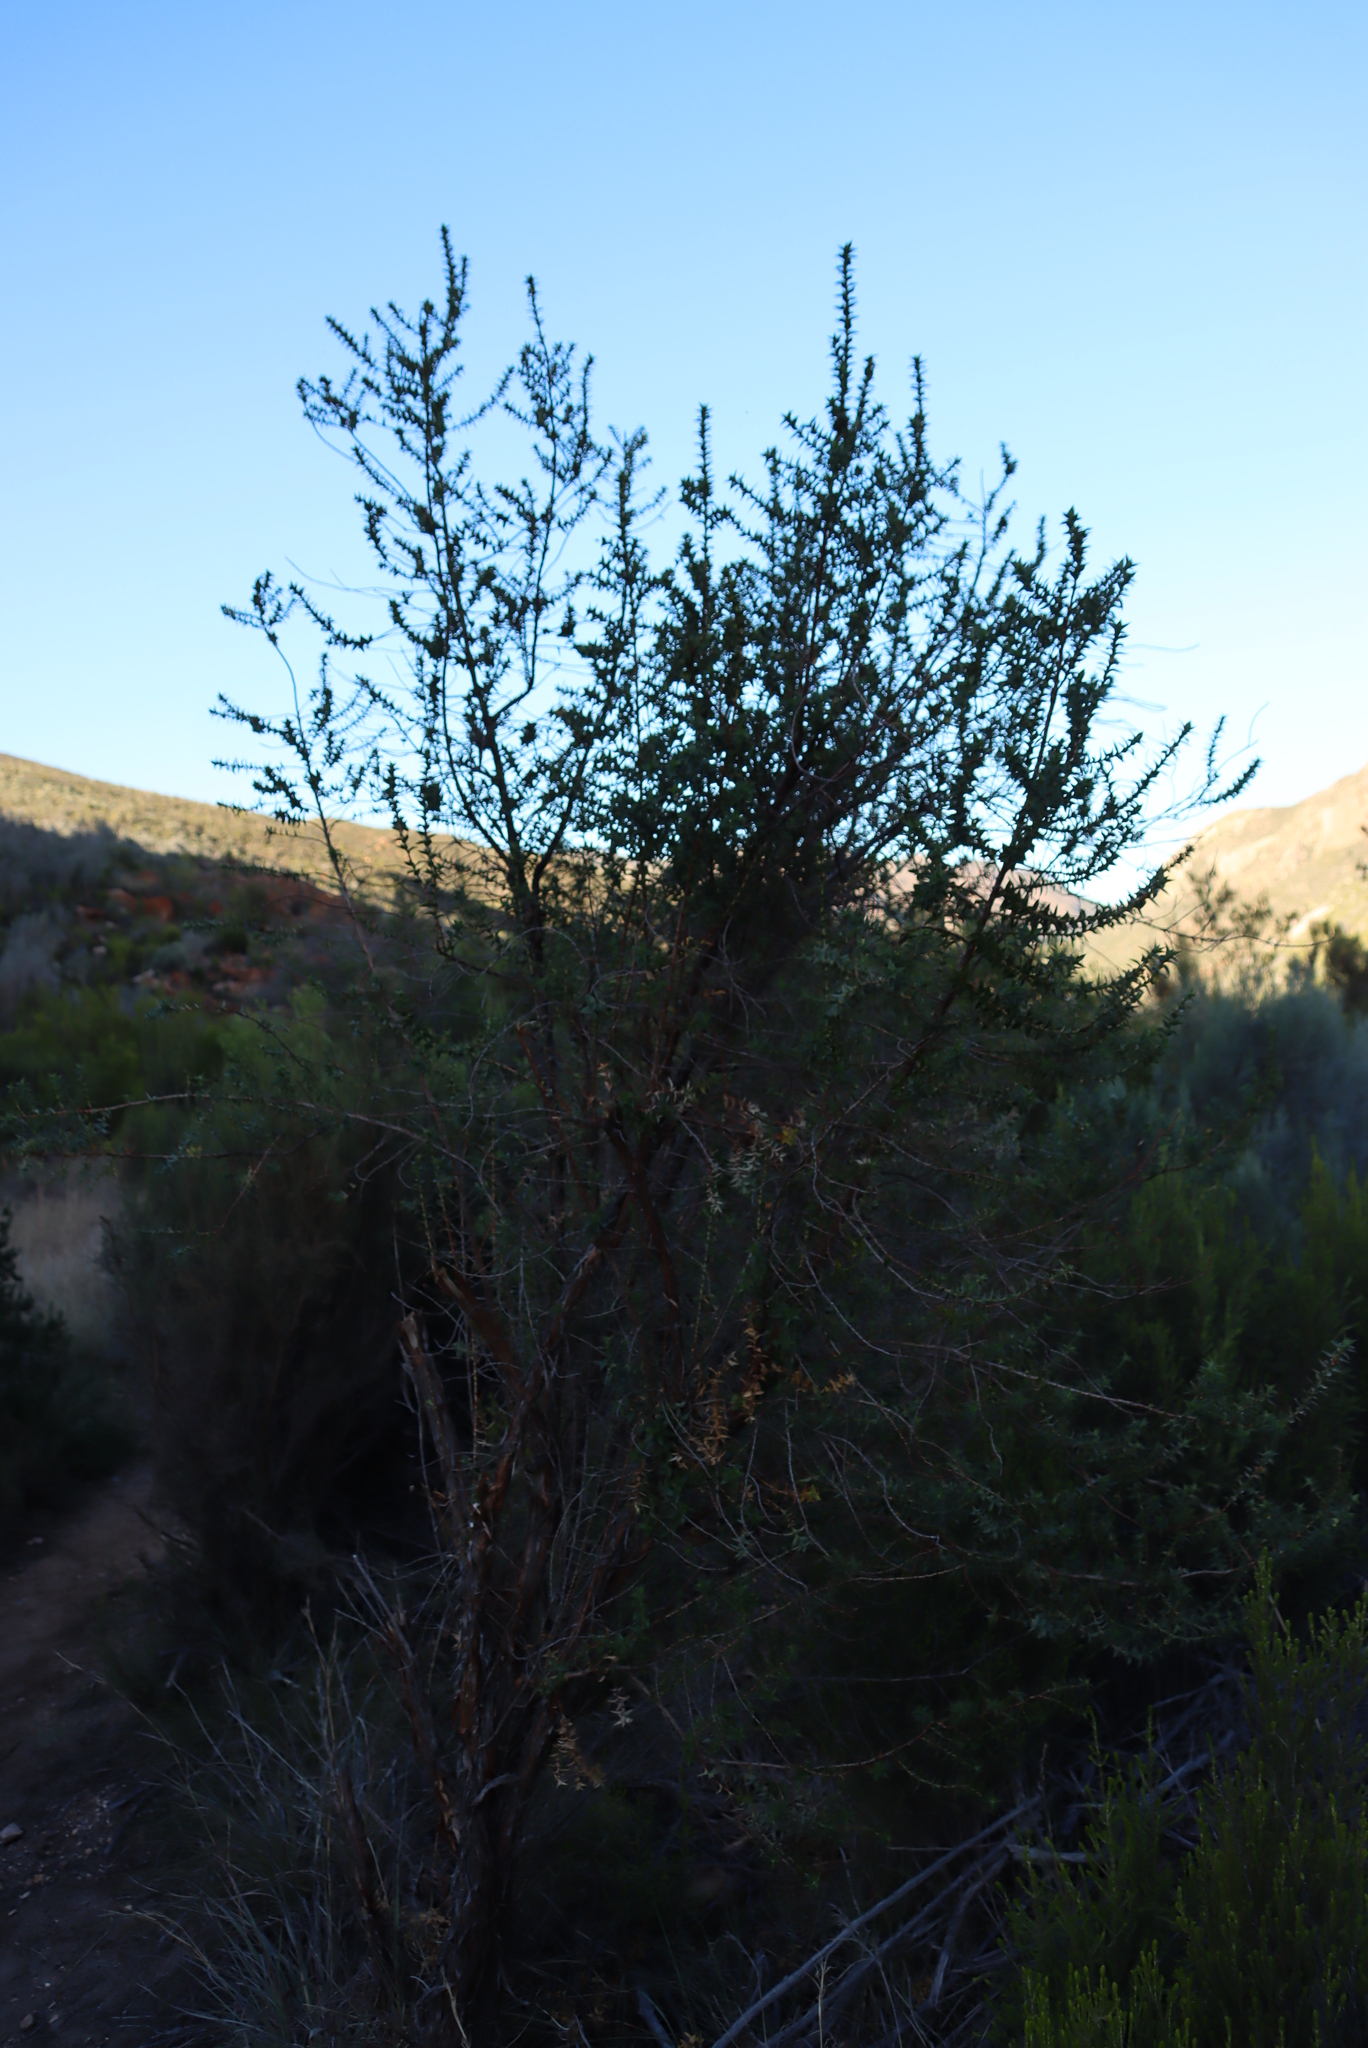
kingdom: Plantae
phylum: Tracheophyta
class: Magnoliopsida
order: Rosales
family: Rosaceae
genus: Cliffortia
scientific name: Cliffortia ilicifolia
